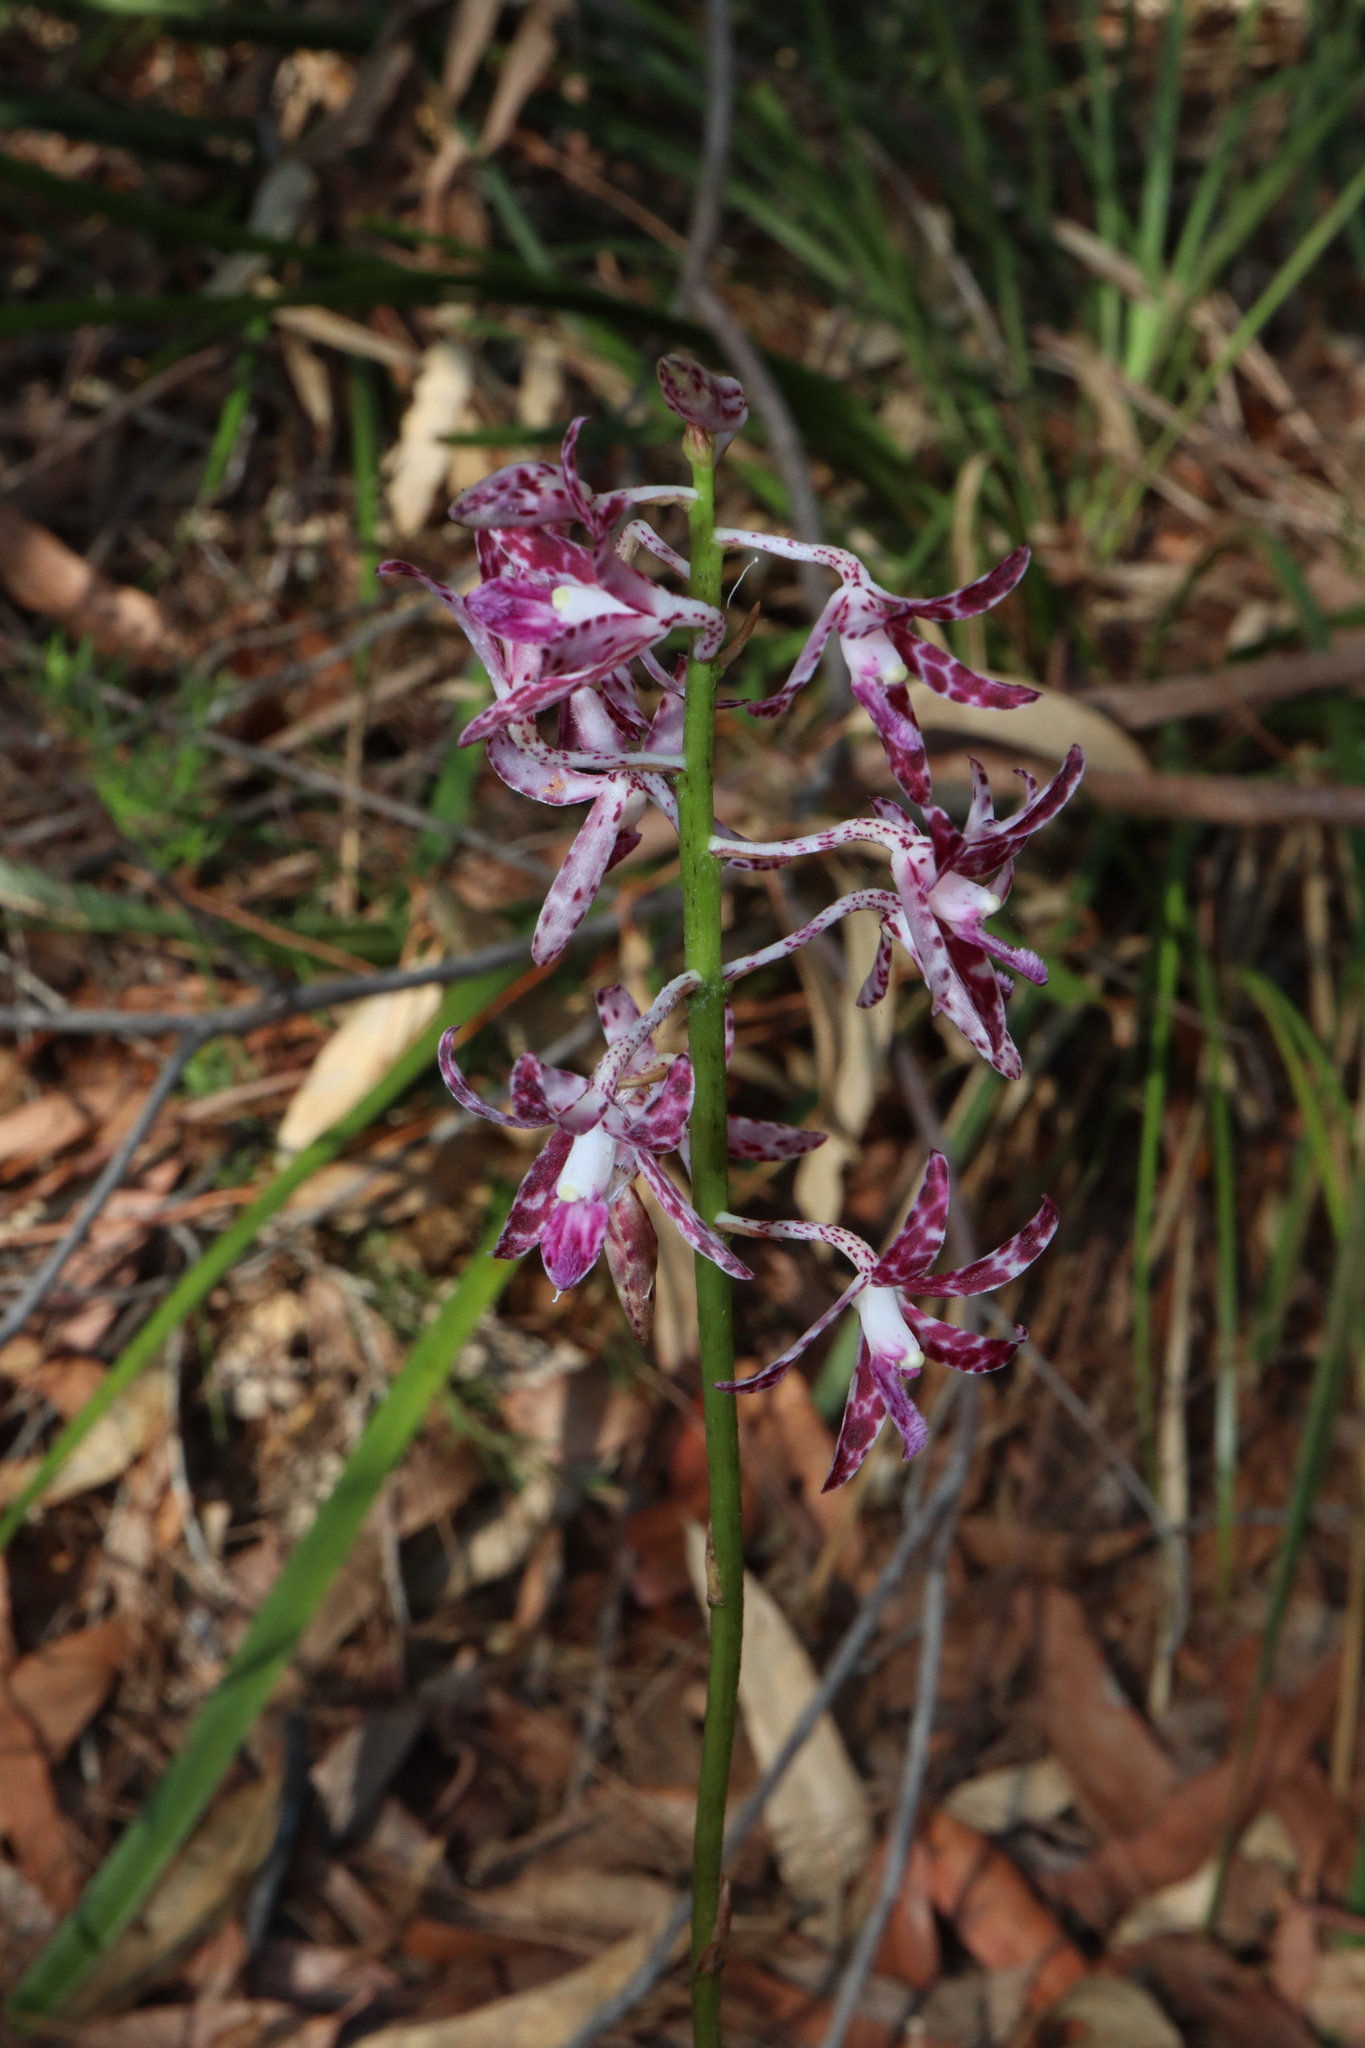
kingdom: Plantae
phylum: Tracheophyta
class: Liliopsida
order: Asparagales
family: Orchidaceae
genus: Dipodium
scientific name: Dipodium variegatum
